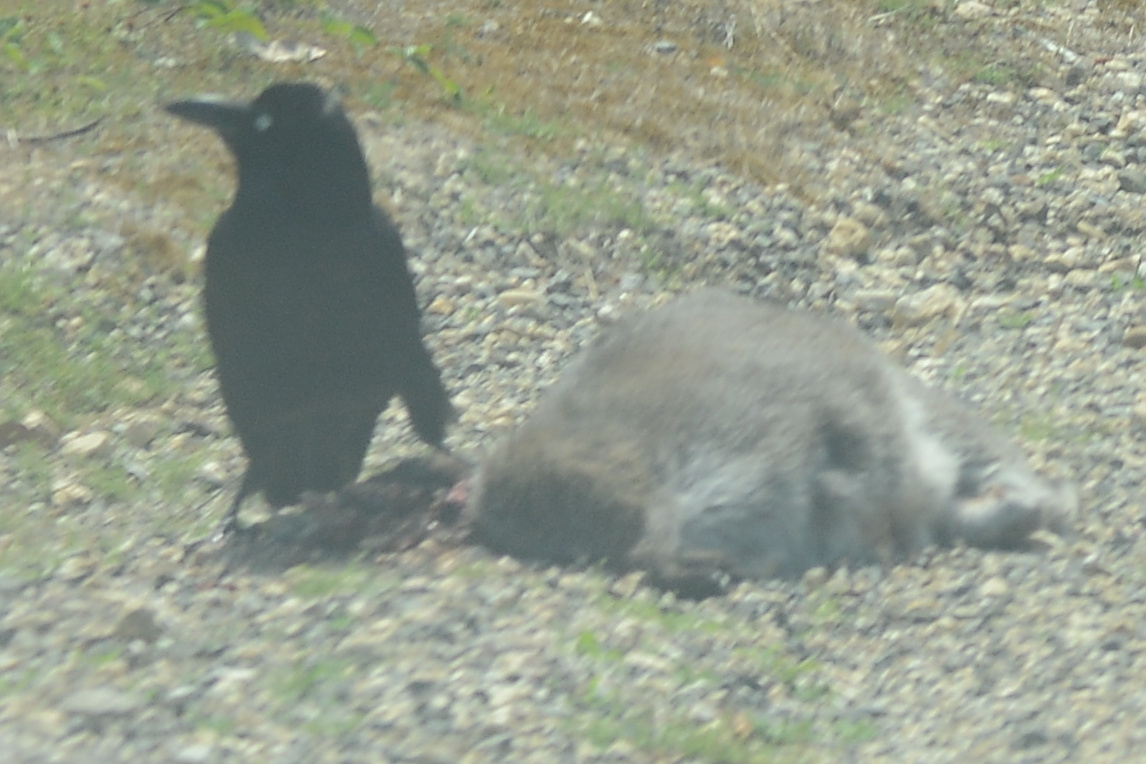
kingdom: Animalia
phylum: Chordata
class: Aves
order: Passeriformes
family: Corvidae
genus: Corvus
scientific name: Corvus tasmanicus
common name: Forest raven
